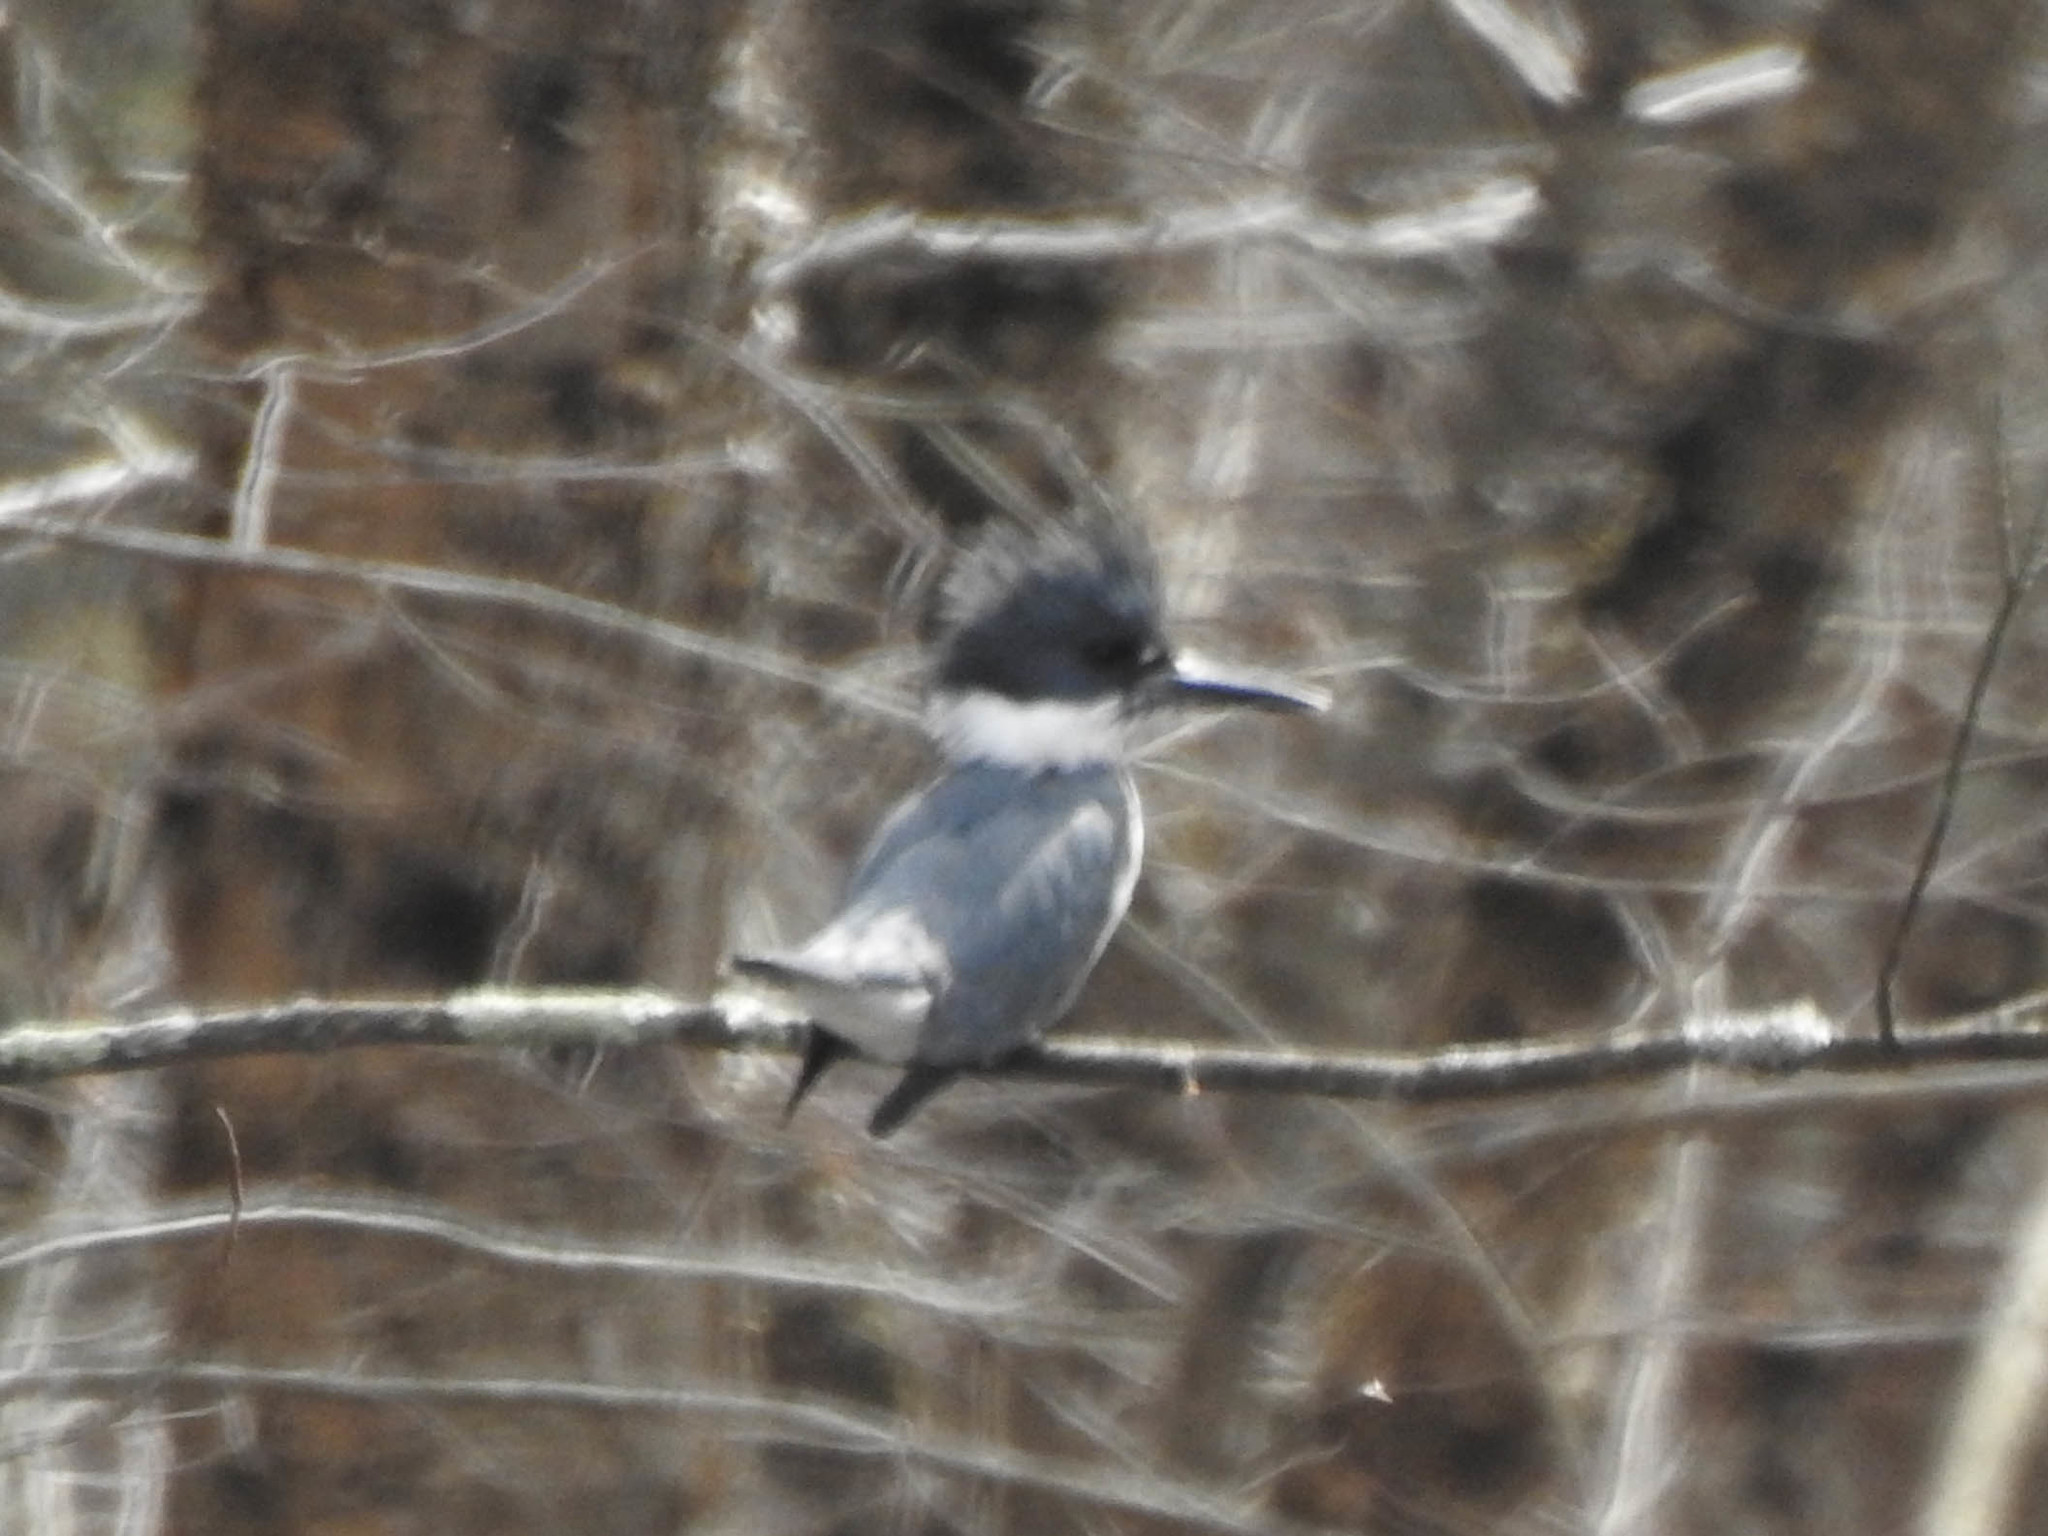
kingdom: Animalia
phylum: Chordata
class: Aves
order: Coraciiformes
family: Alcedinidae
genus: Megaceryle
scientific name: Megaceryle alcyon
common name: Belted kingfisher
